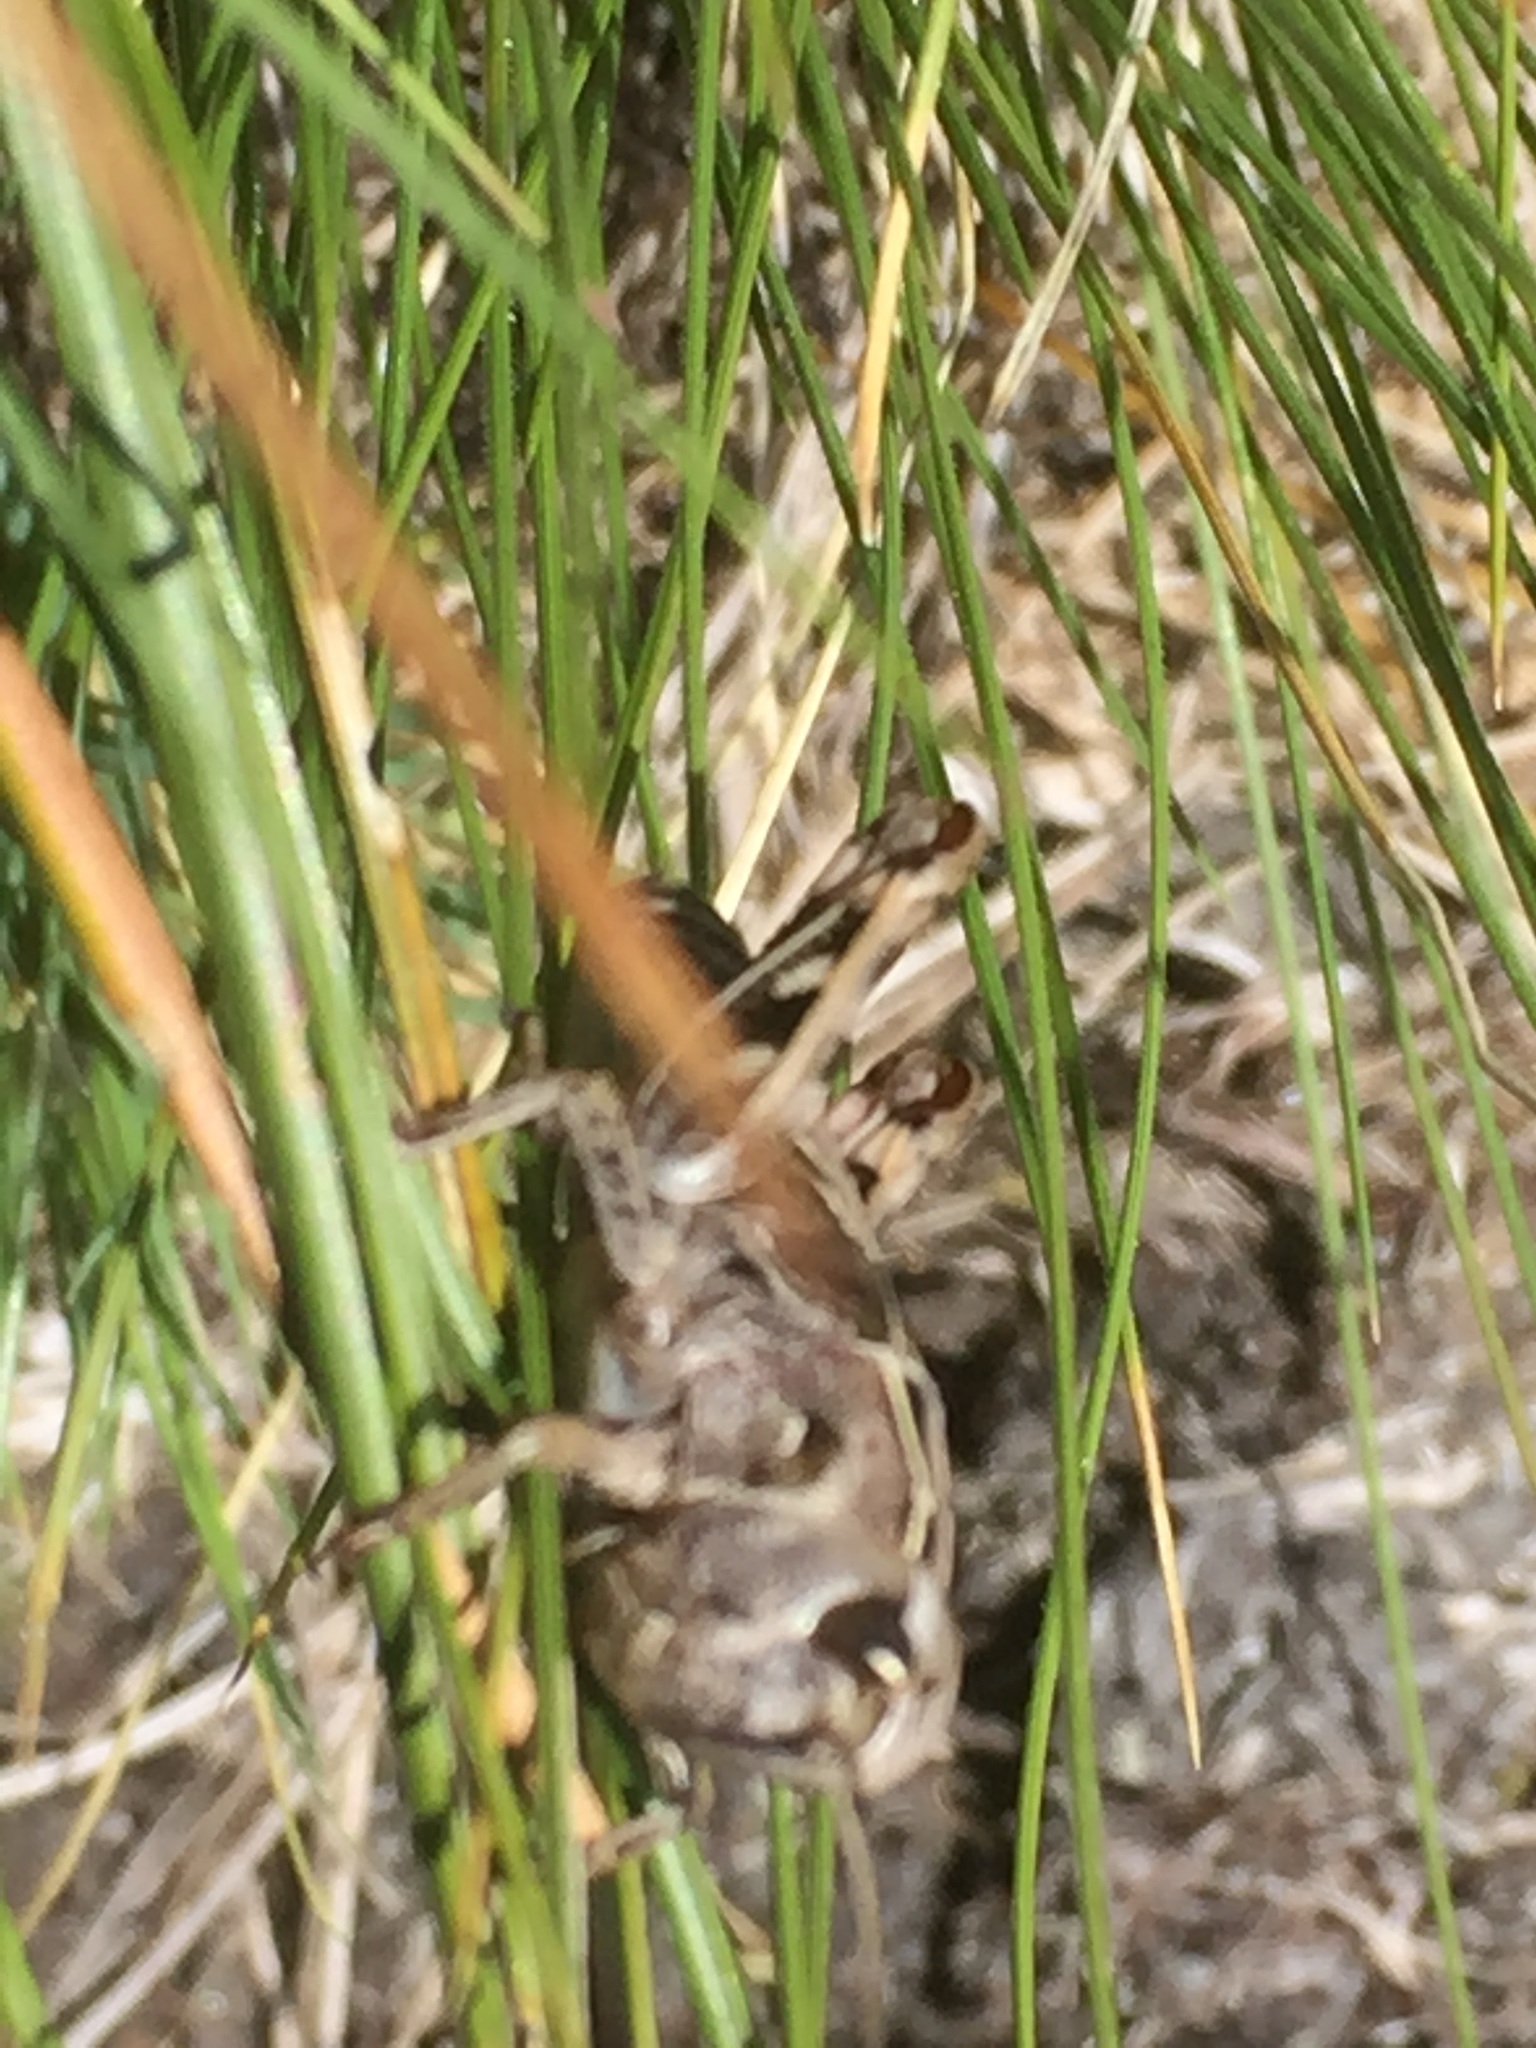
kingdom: Animalia
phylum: Arthropoda
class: Insecta
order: Orthoptera
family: Acrididae
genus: Arcyptera
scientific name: Arcyptera tornosi
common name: Iberian banded grasshopper
